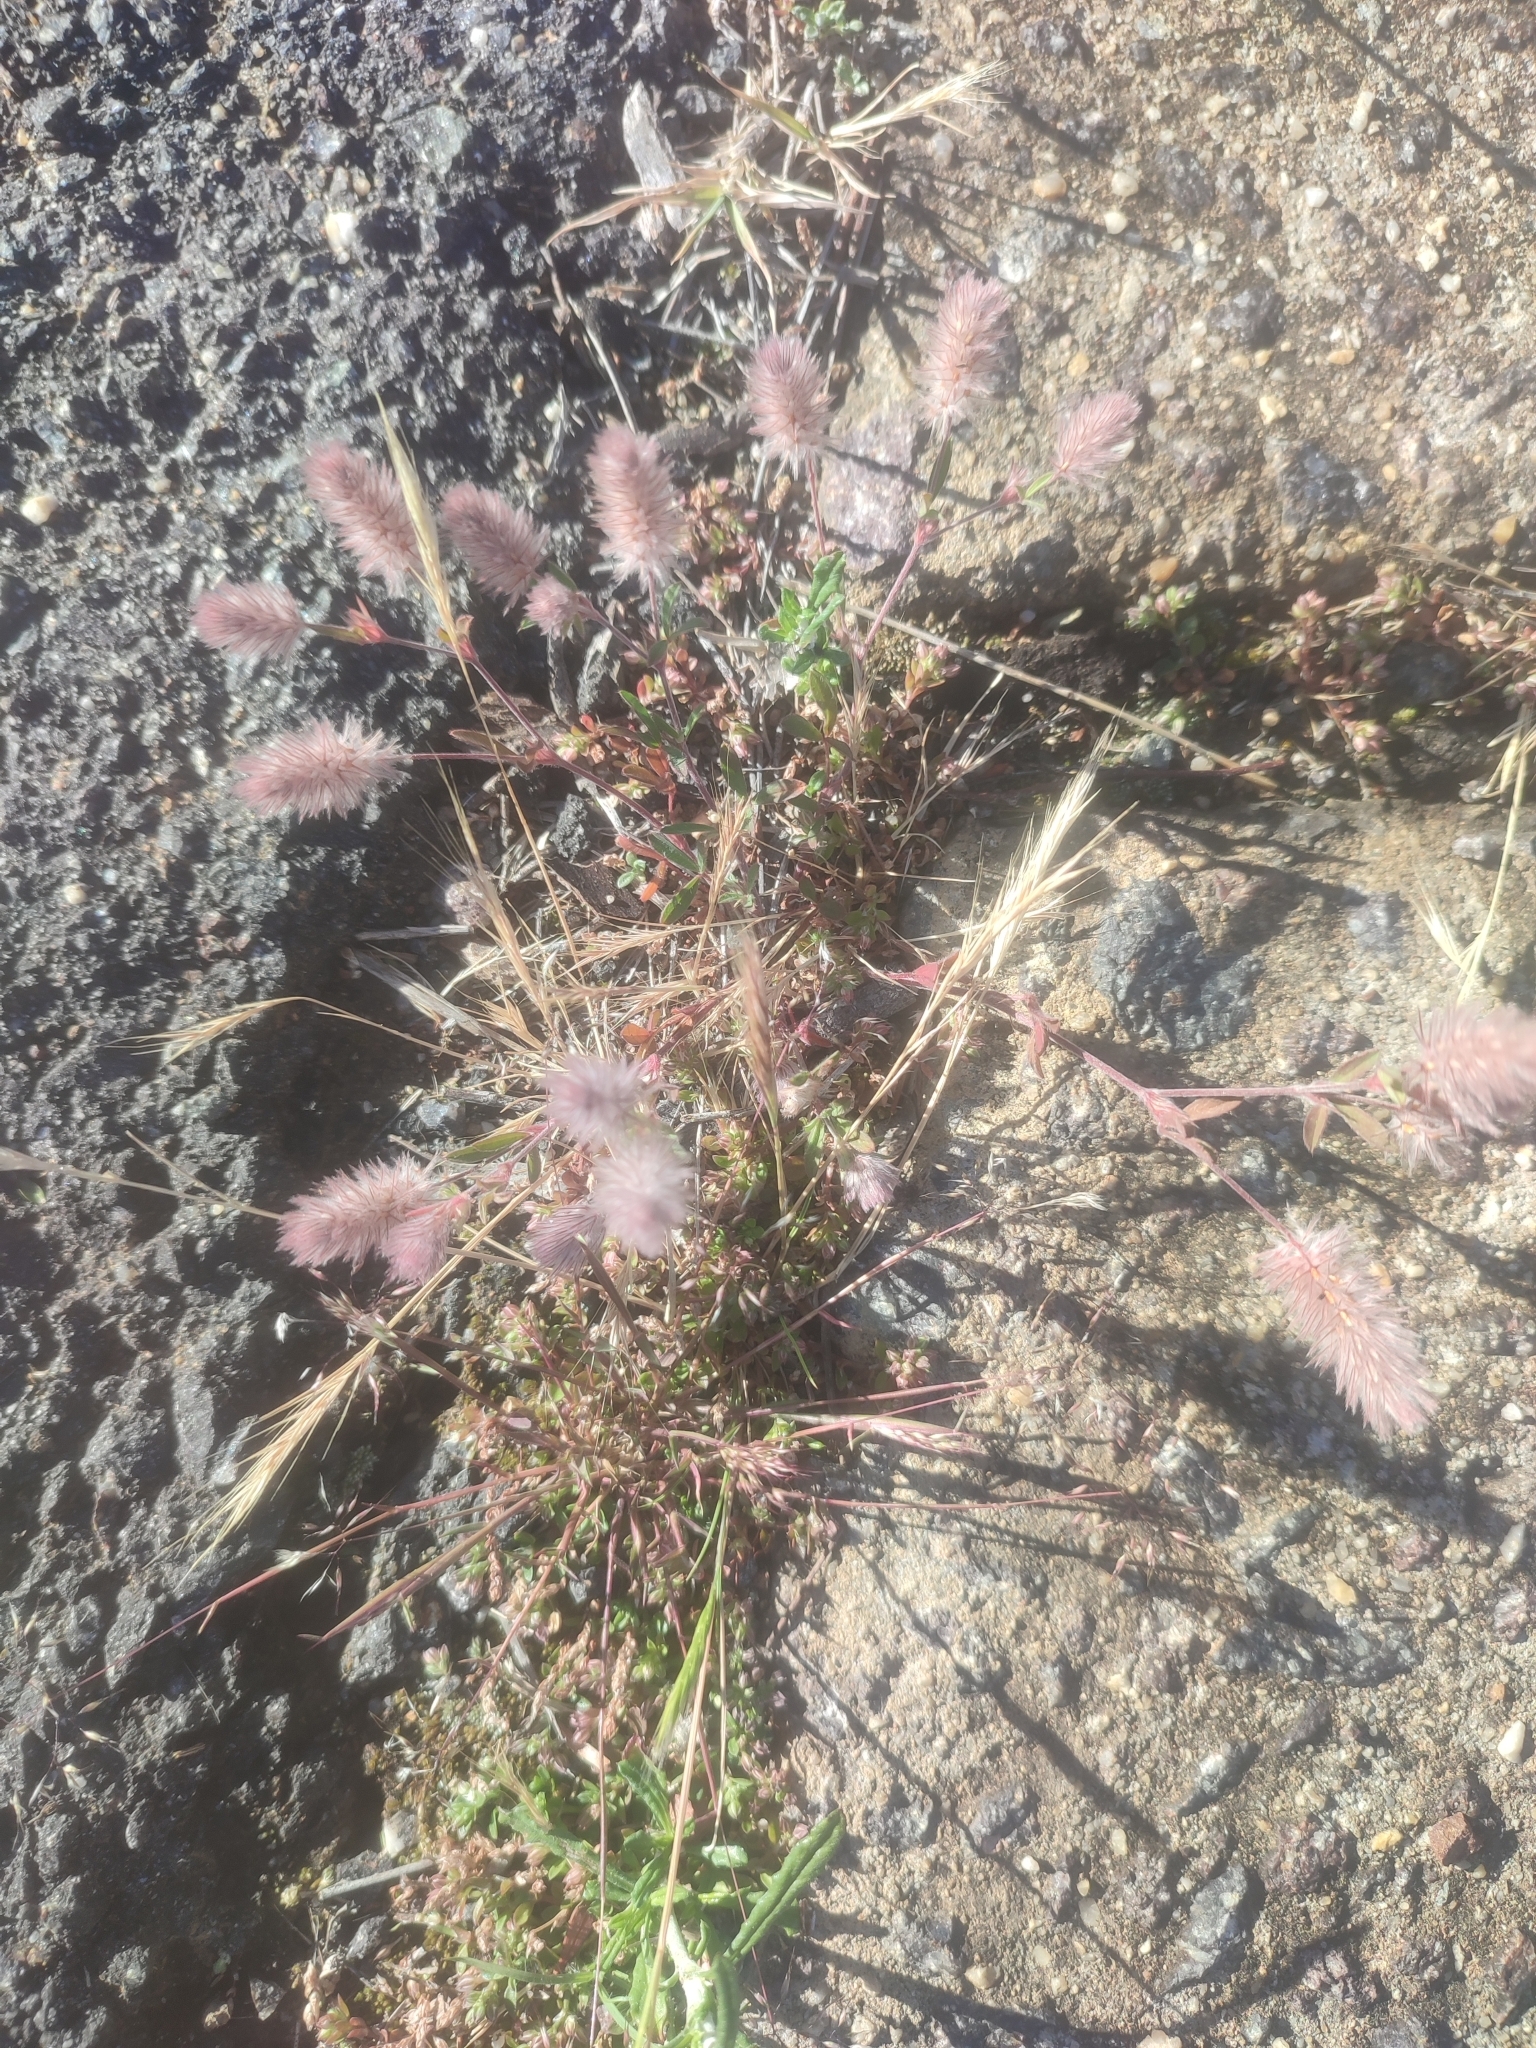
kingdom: Plantae
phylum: Tracheophyta
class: Magnoliopsida
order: Fabales
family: Fabaceae
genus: Trifolium
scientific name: Trifolium arvense
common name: Hare's-foot clover
